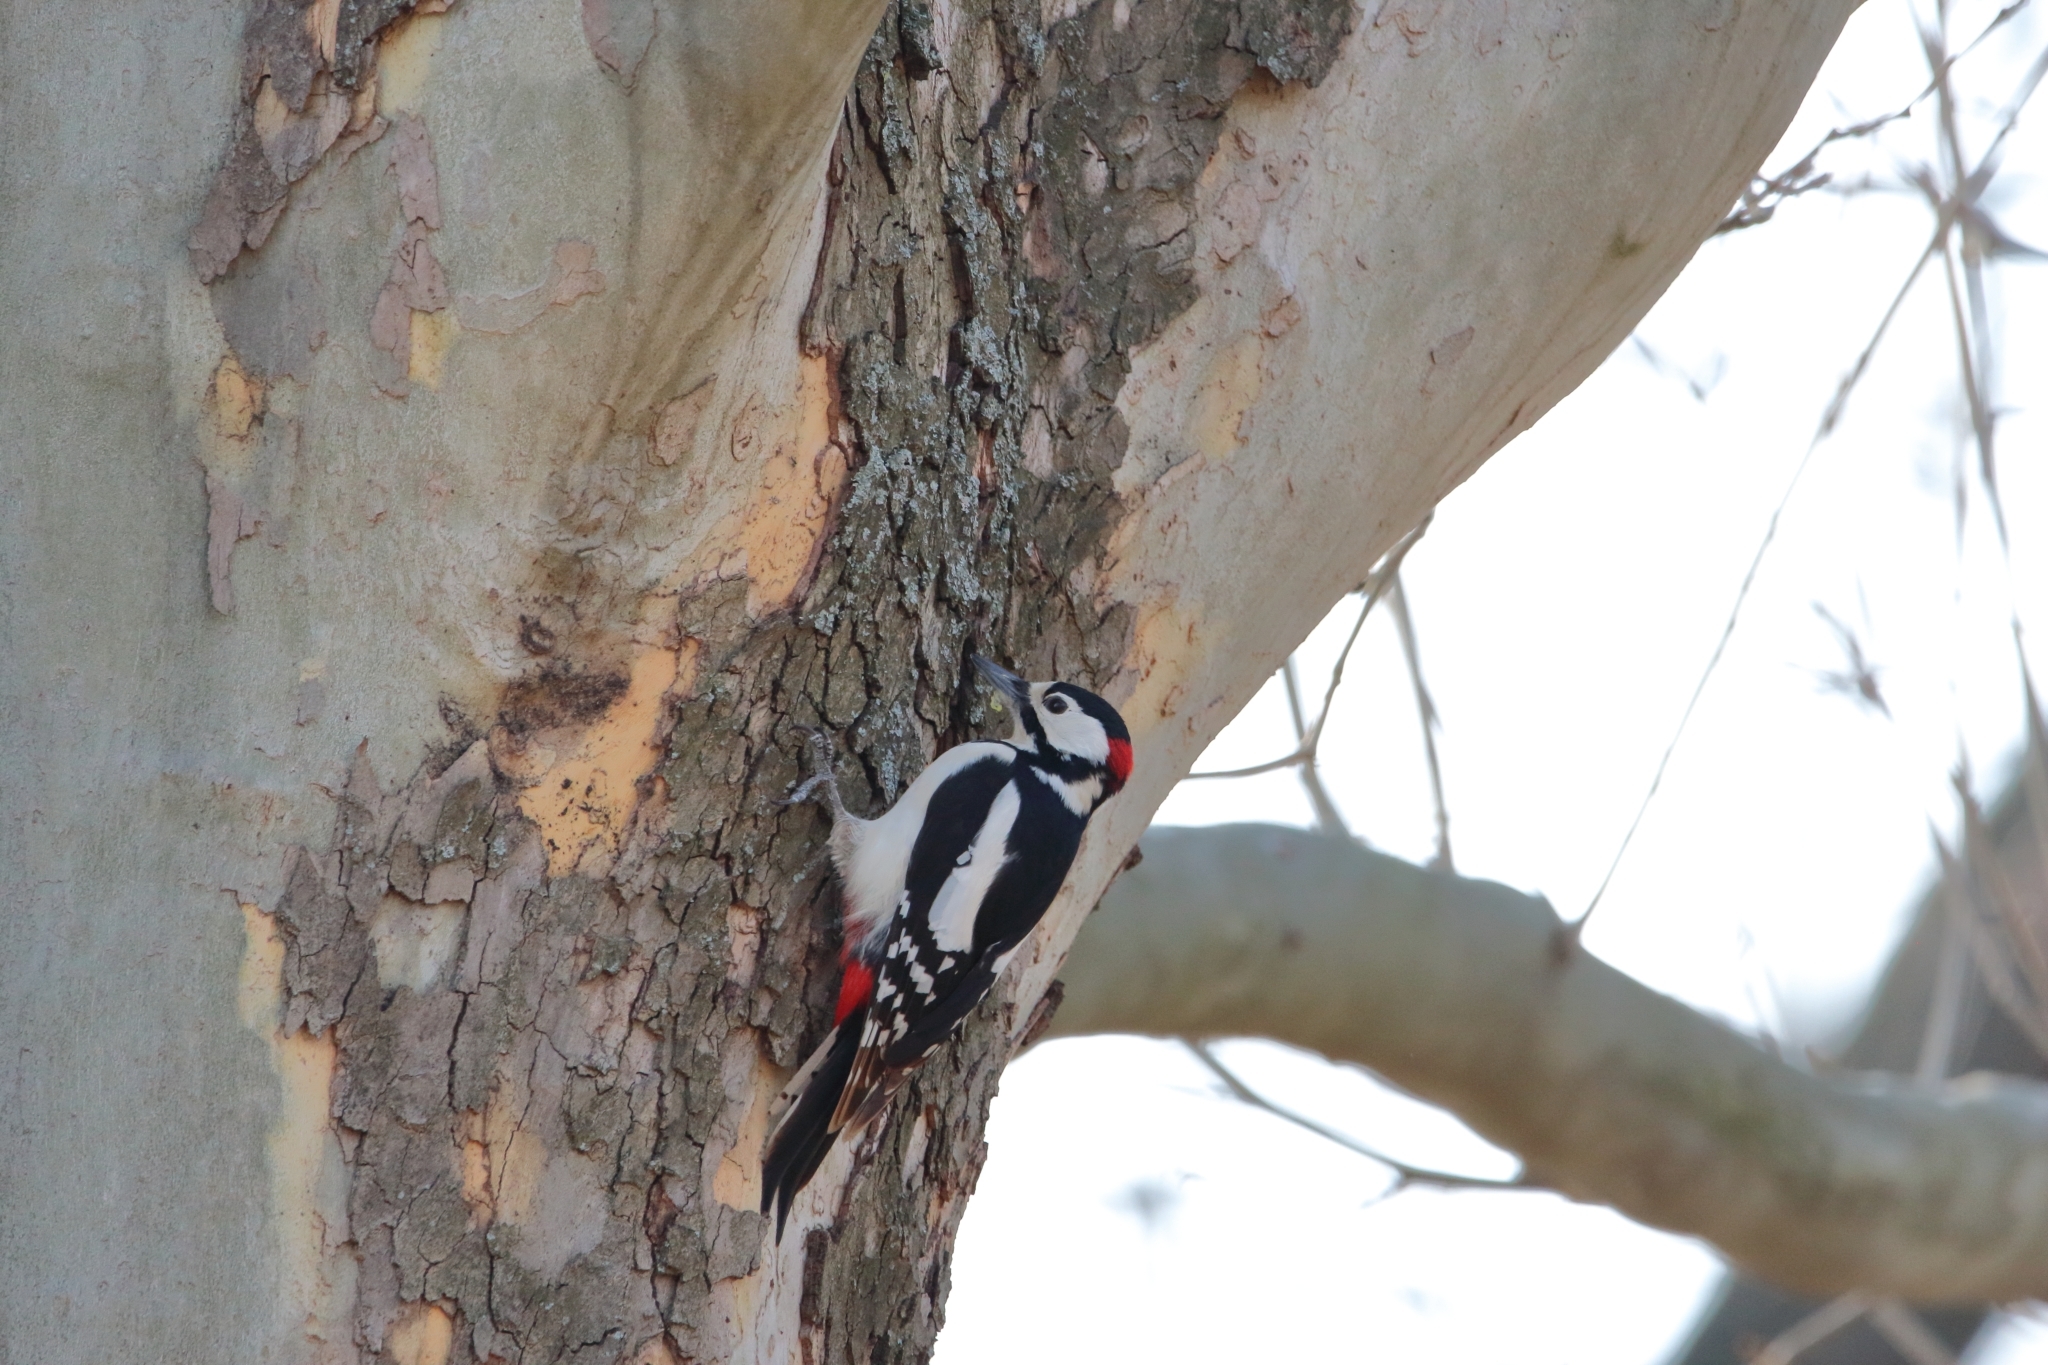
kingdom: Animalia
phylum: Chordata
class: Aves
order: Piciformes
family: Picidae
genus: Dendrocopos
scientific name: Dendrocopos major
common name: Great spotted woodpecker
